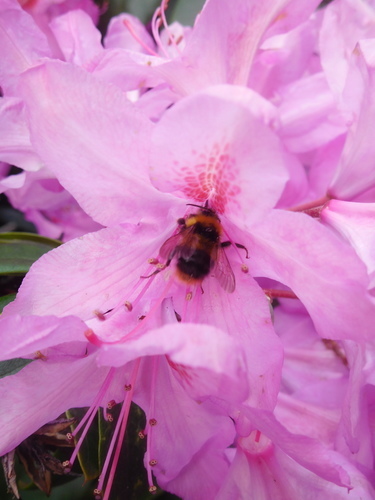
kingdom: Animalia
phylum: Arthropoda
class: Insecta
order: Hymenoptera
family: Apidae
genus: Bombus
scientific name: Bombus pratorum
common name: Early humble-bee
